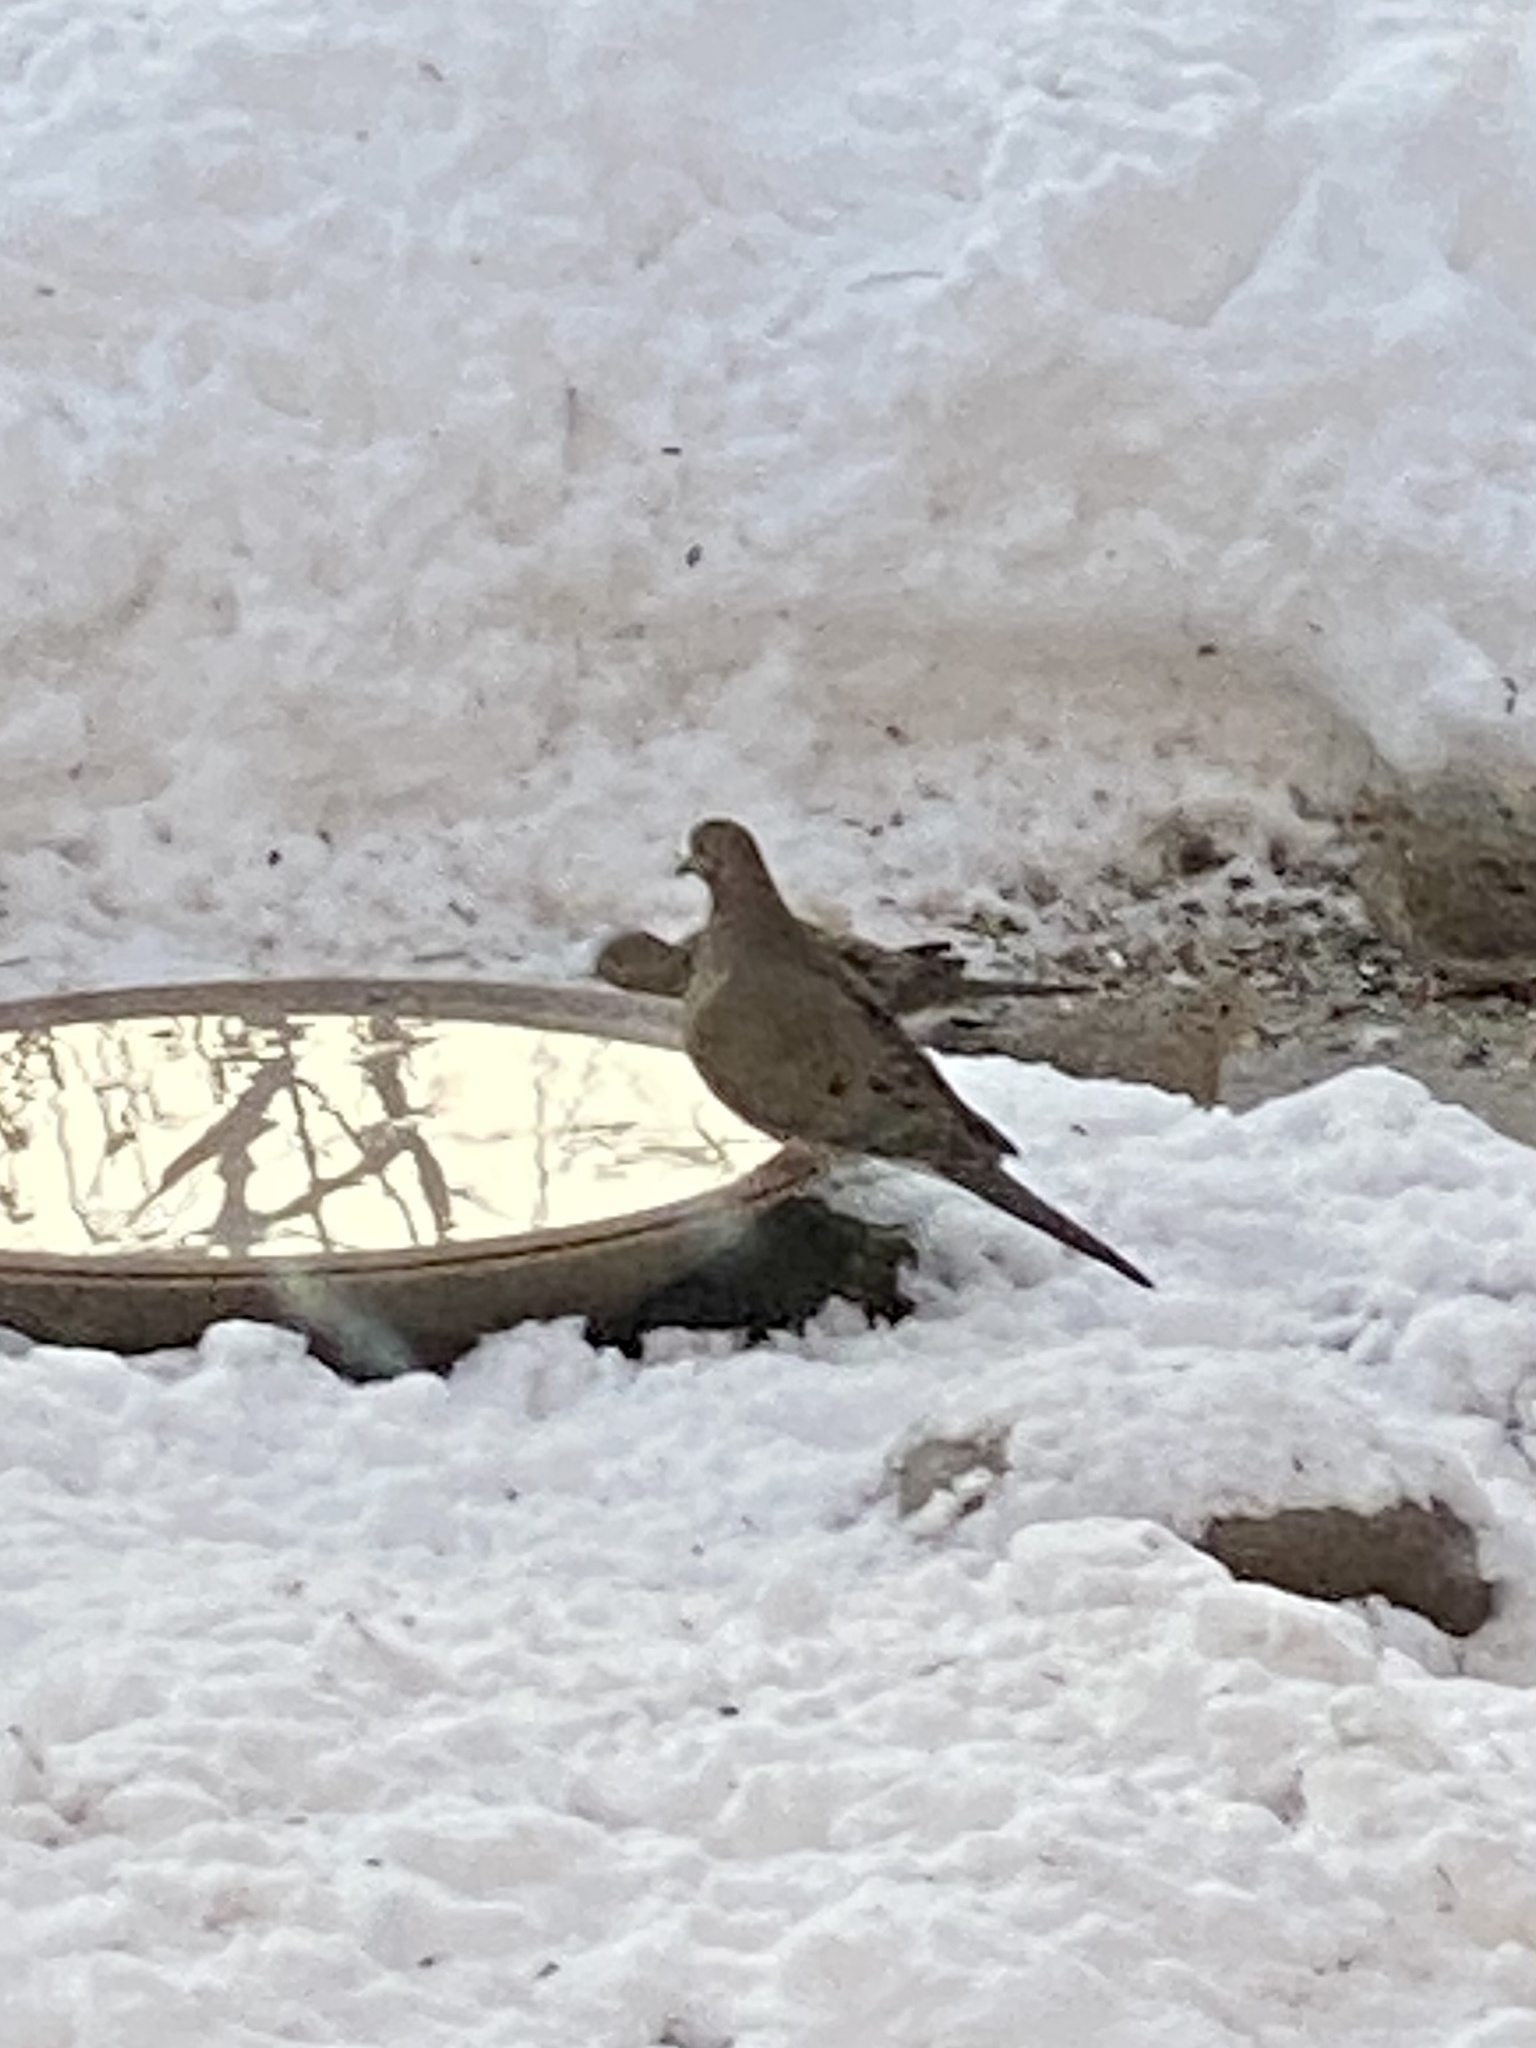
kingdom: Animalia
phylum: Chordata
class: Aves
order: Columbiformes
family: Columbidae
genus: Zenaida
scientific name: Zenaida macroura
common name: Mourning dove
